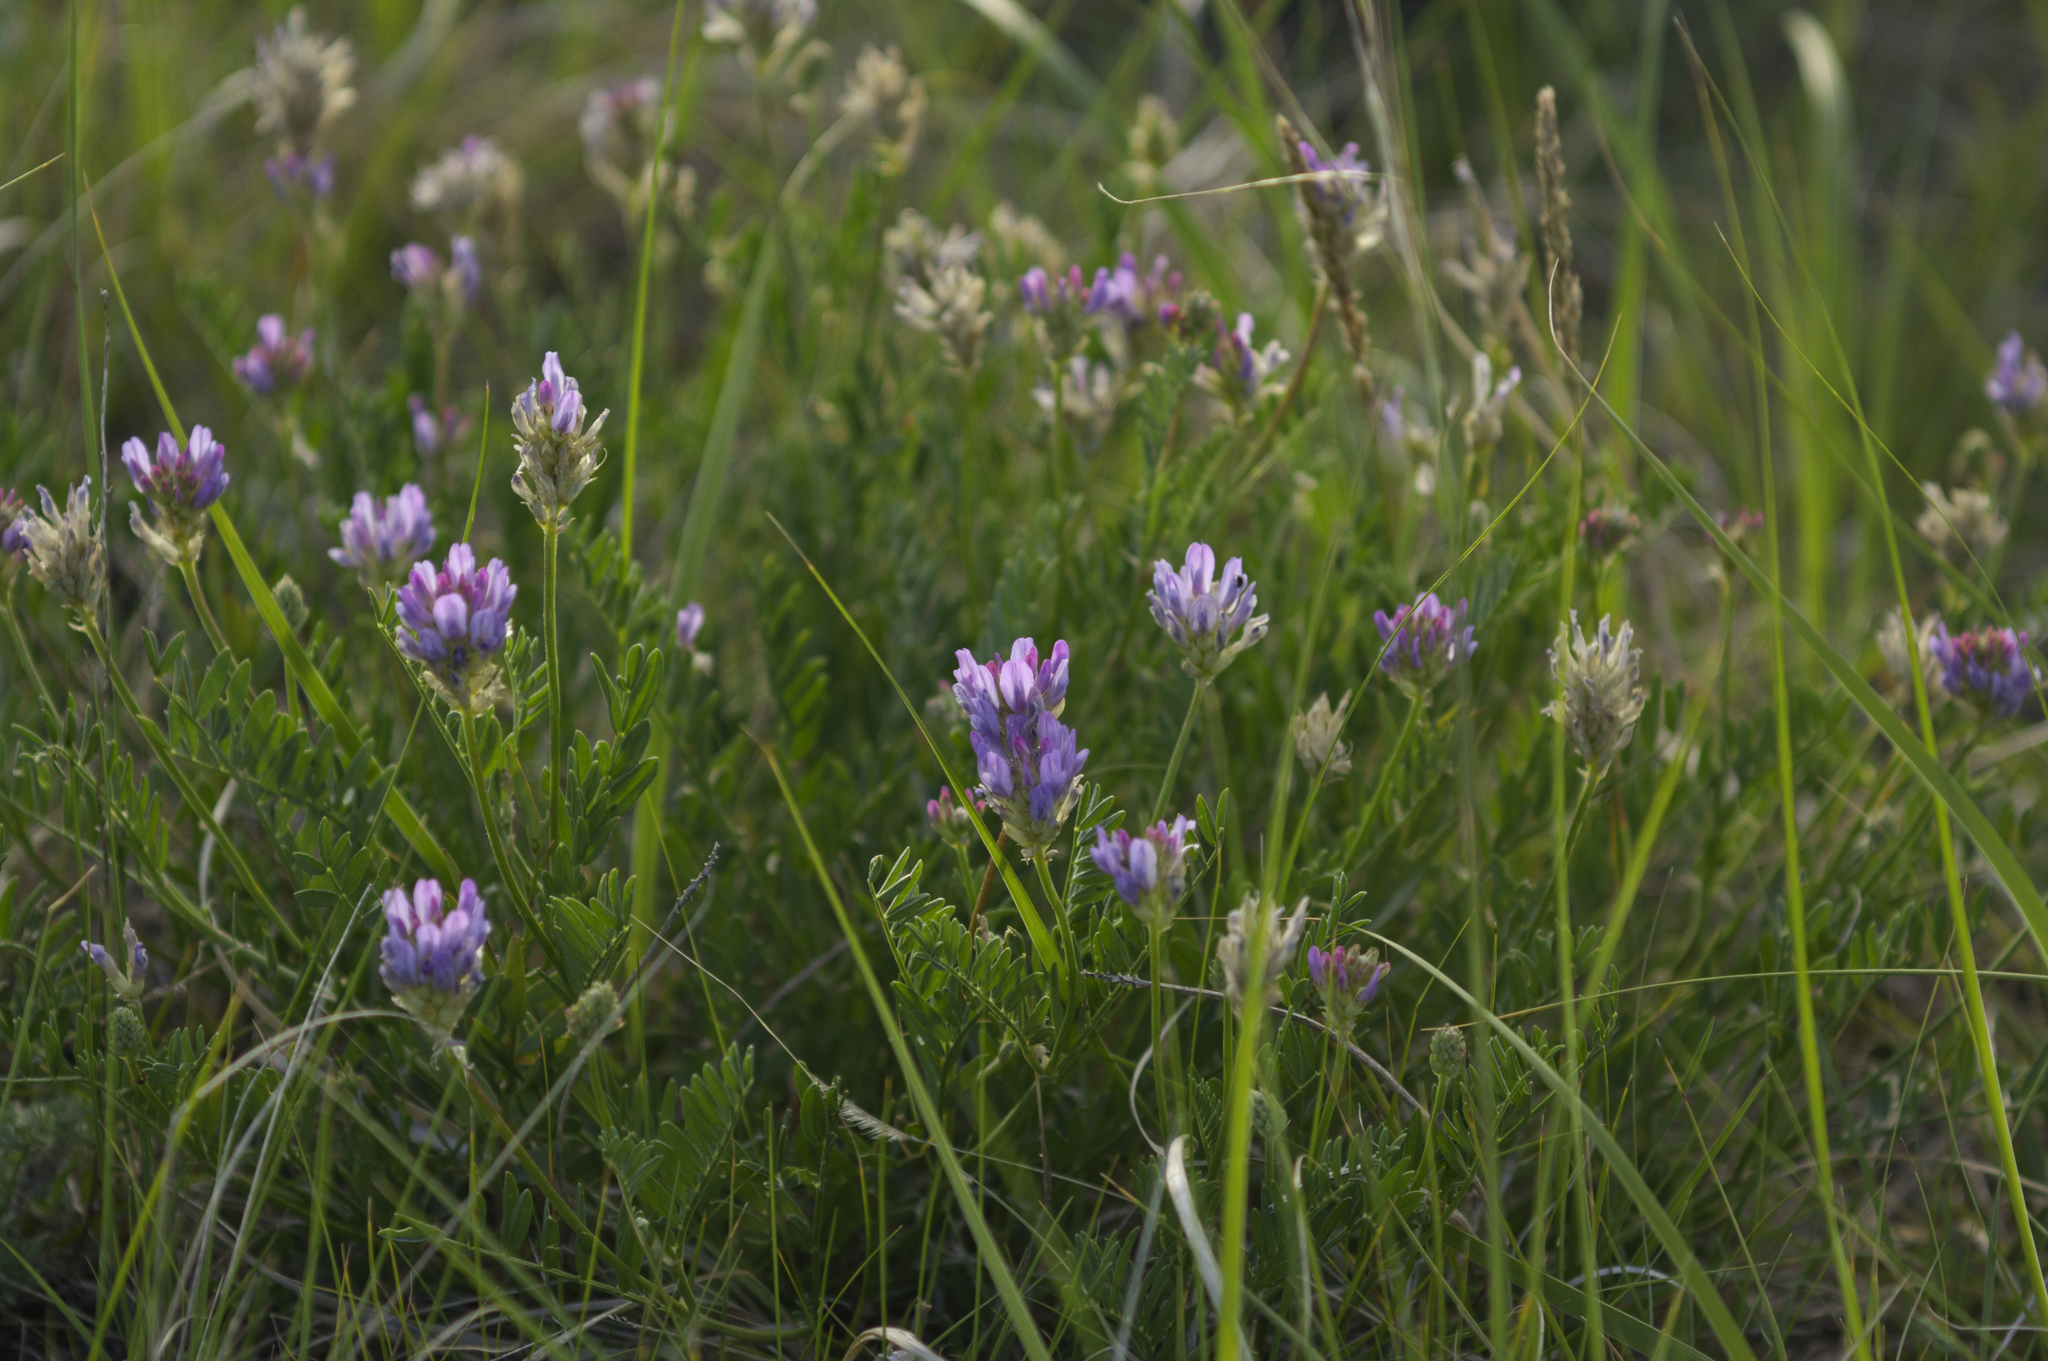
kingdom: Plantae
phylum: Tracheophyta
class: Magnoliopsida
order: Fabales
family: Fabaceae
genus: Astragalus
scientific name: Astragalus laxmannii
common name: Laxmann's milk-vetch
